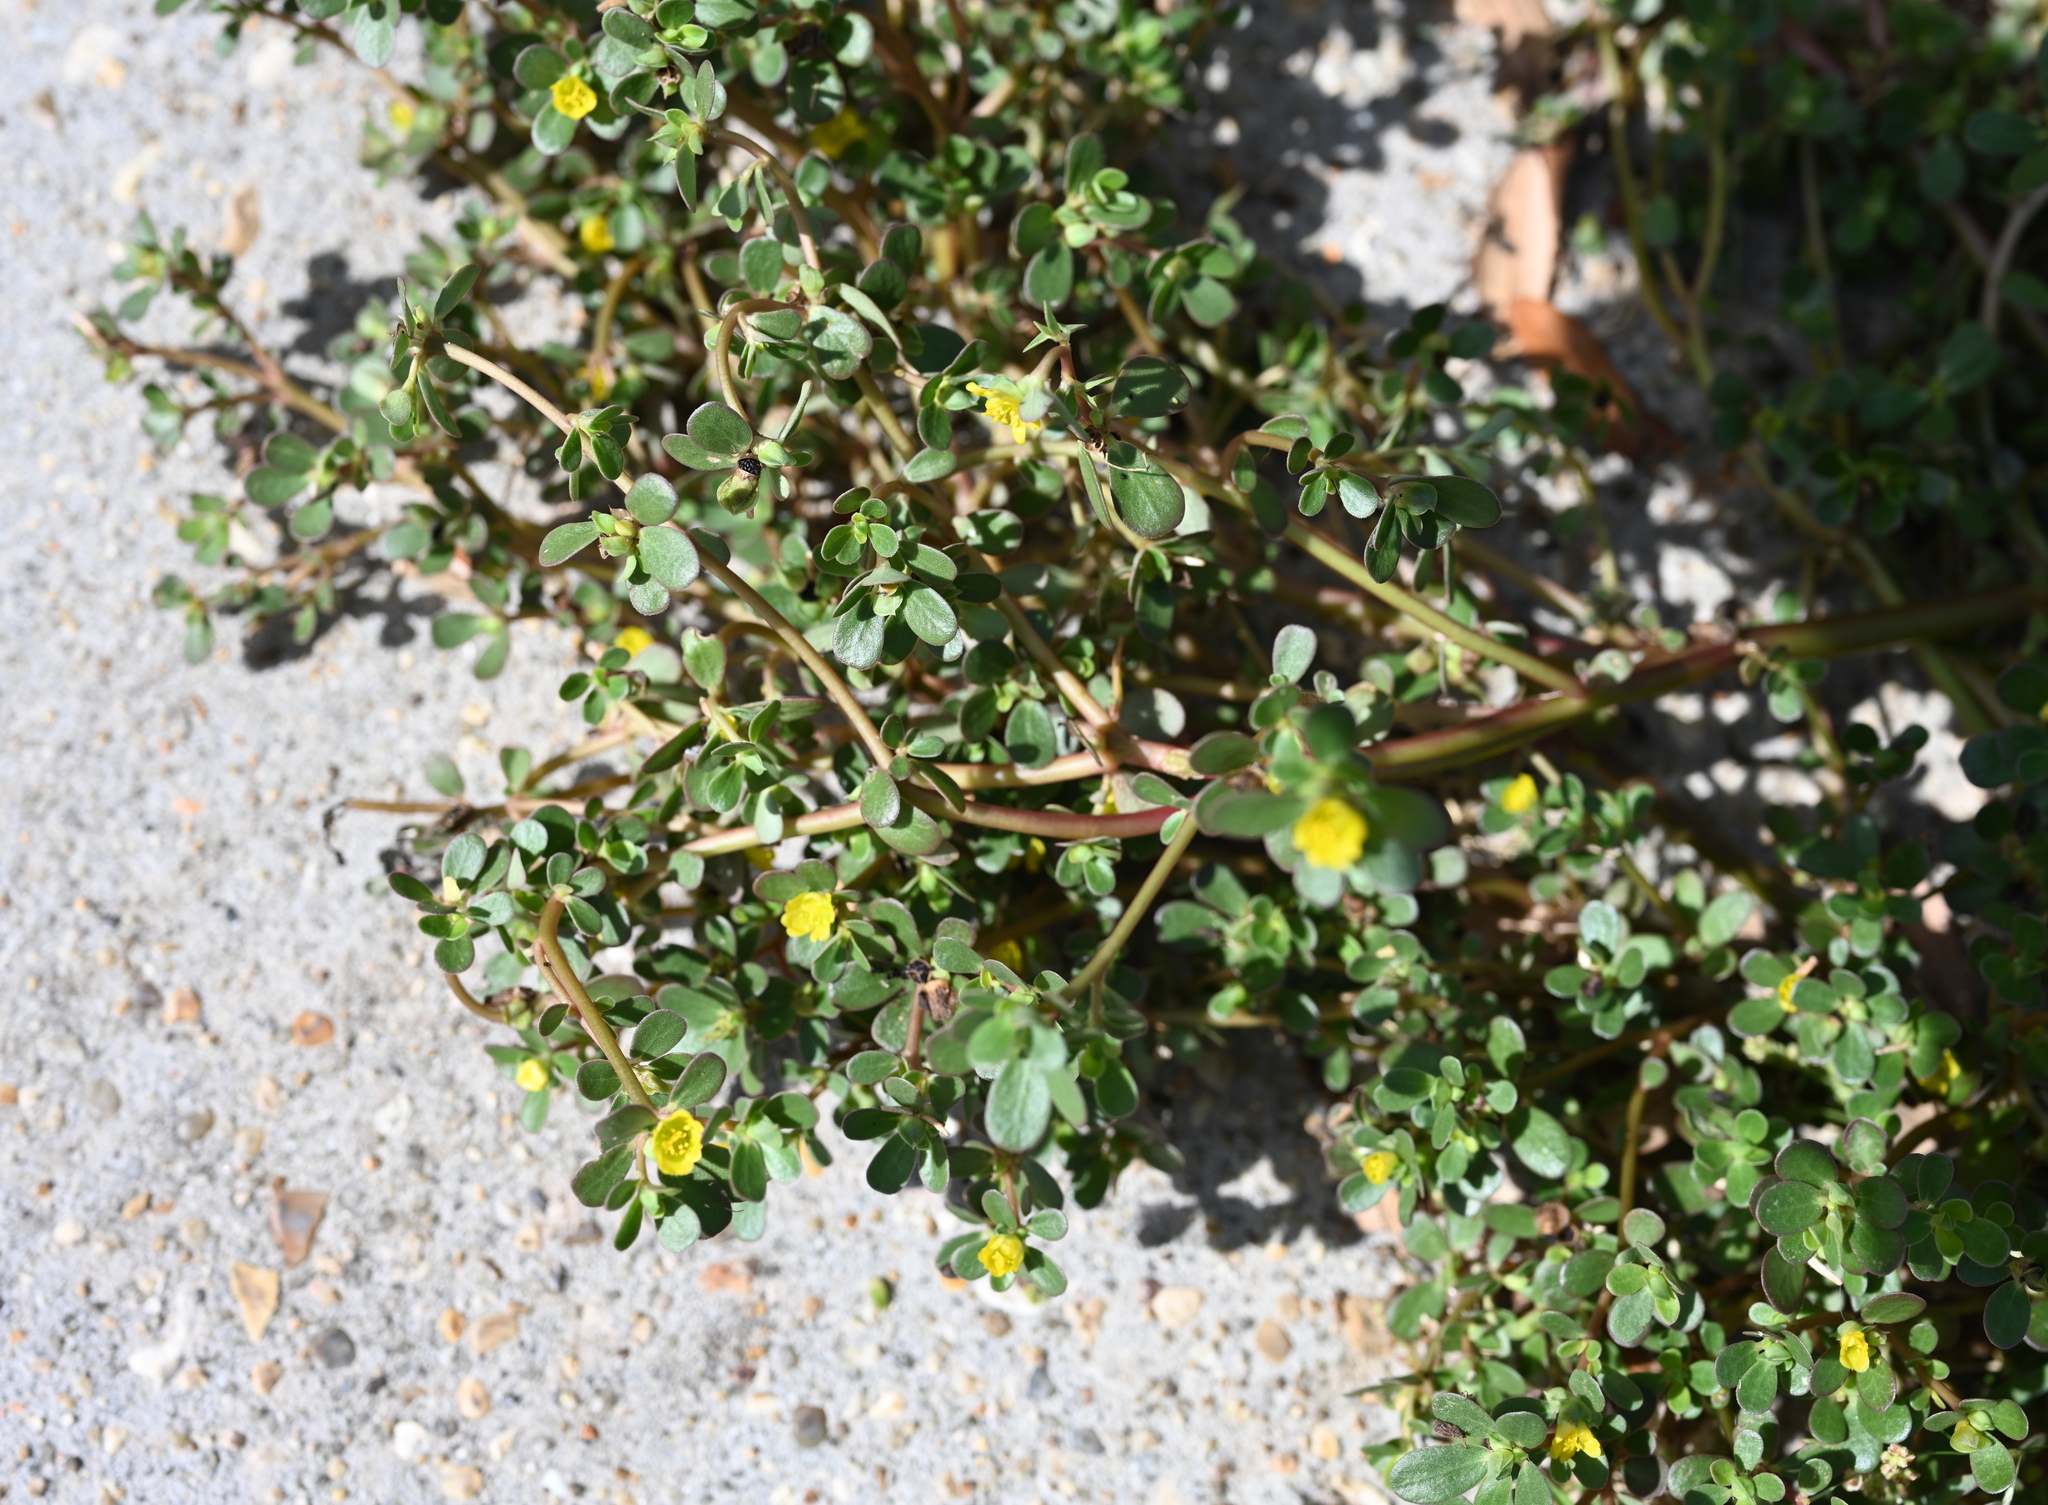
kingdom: Plantae
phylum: Tracheophyta
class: Magnoliopsida
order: Caryophyllales
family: Portulacaceae
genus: Portulaca
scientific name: Portulaca oleracea
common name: Common purslane
